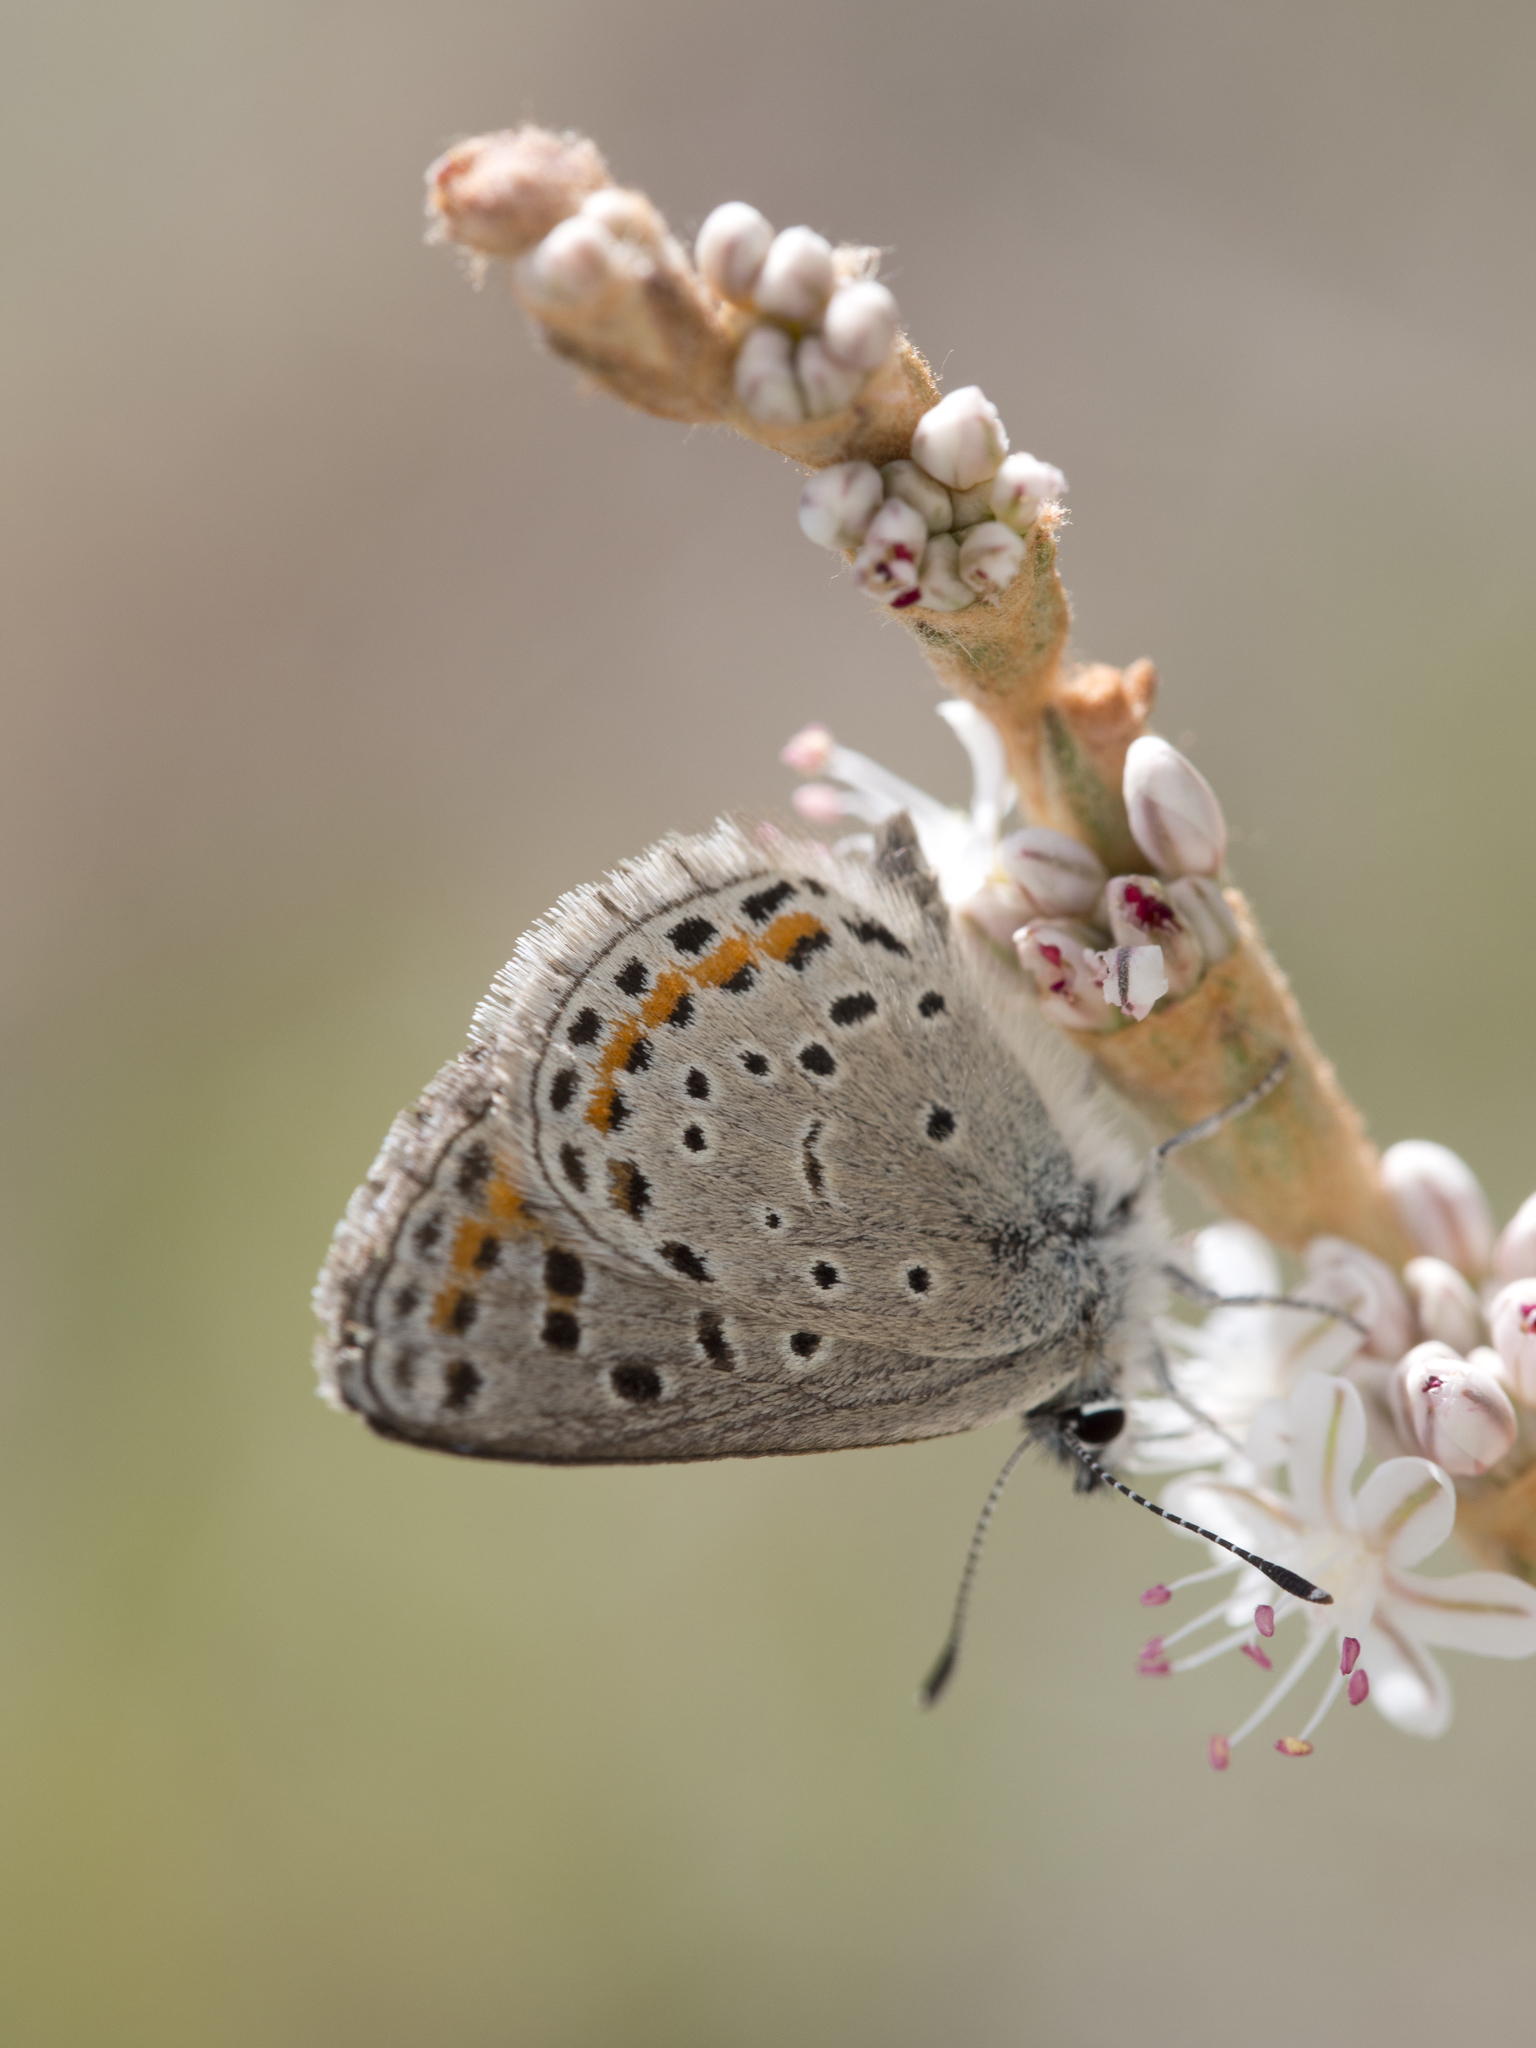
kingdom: Animalia
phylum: Arthropoda
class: Insecta
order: Lepidoptera
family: Lycaenidae
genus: Euphilotes
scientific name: Euphilotes spaldingi
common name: Spalding's blue
